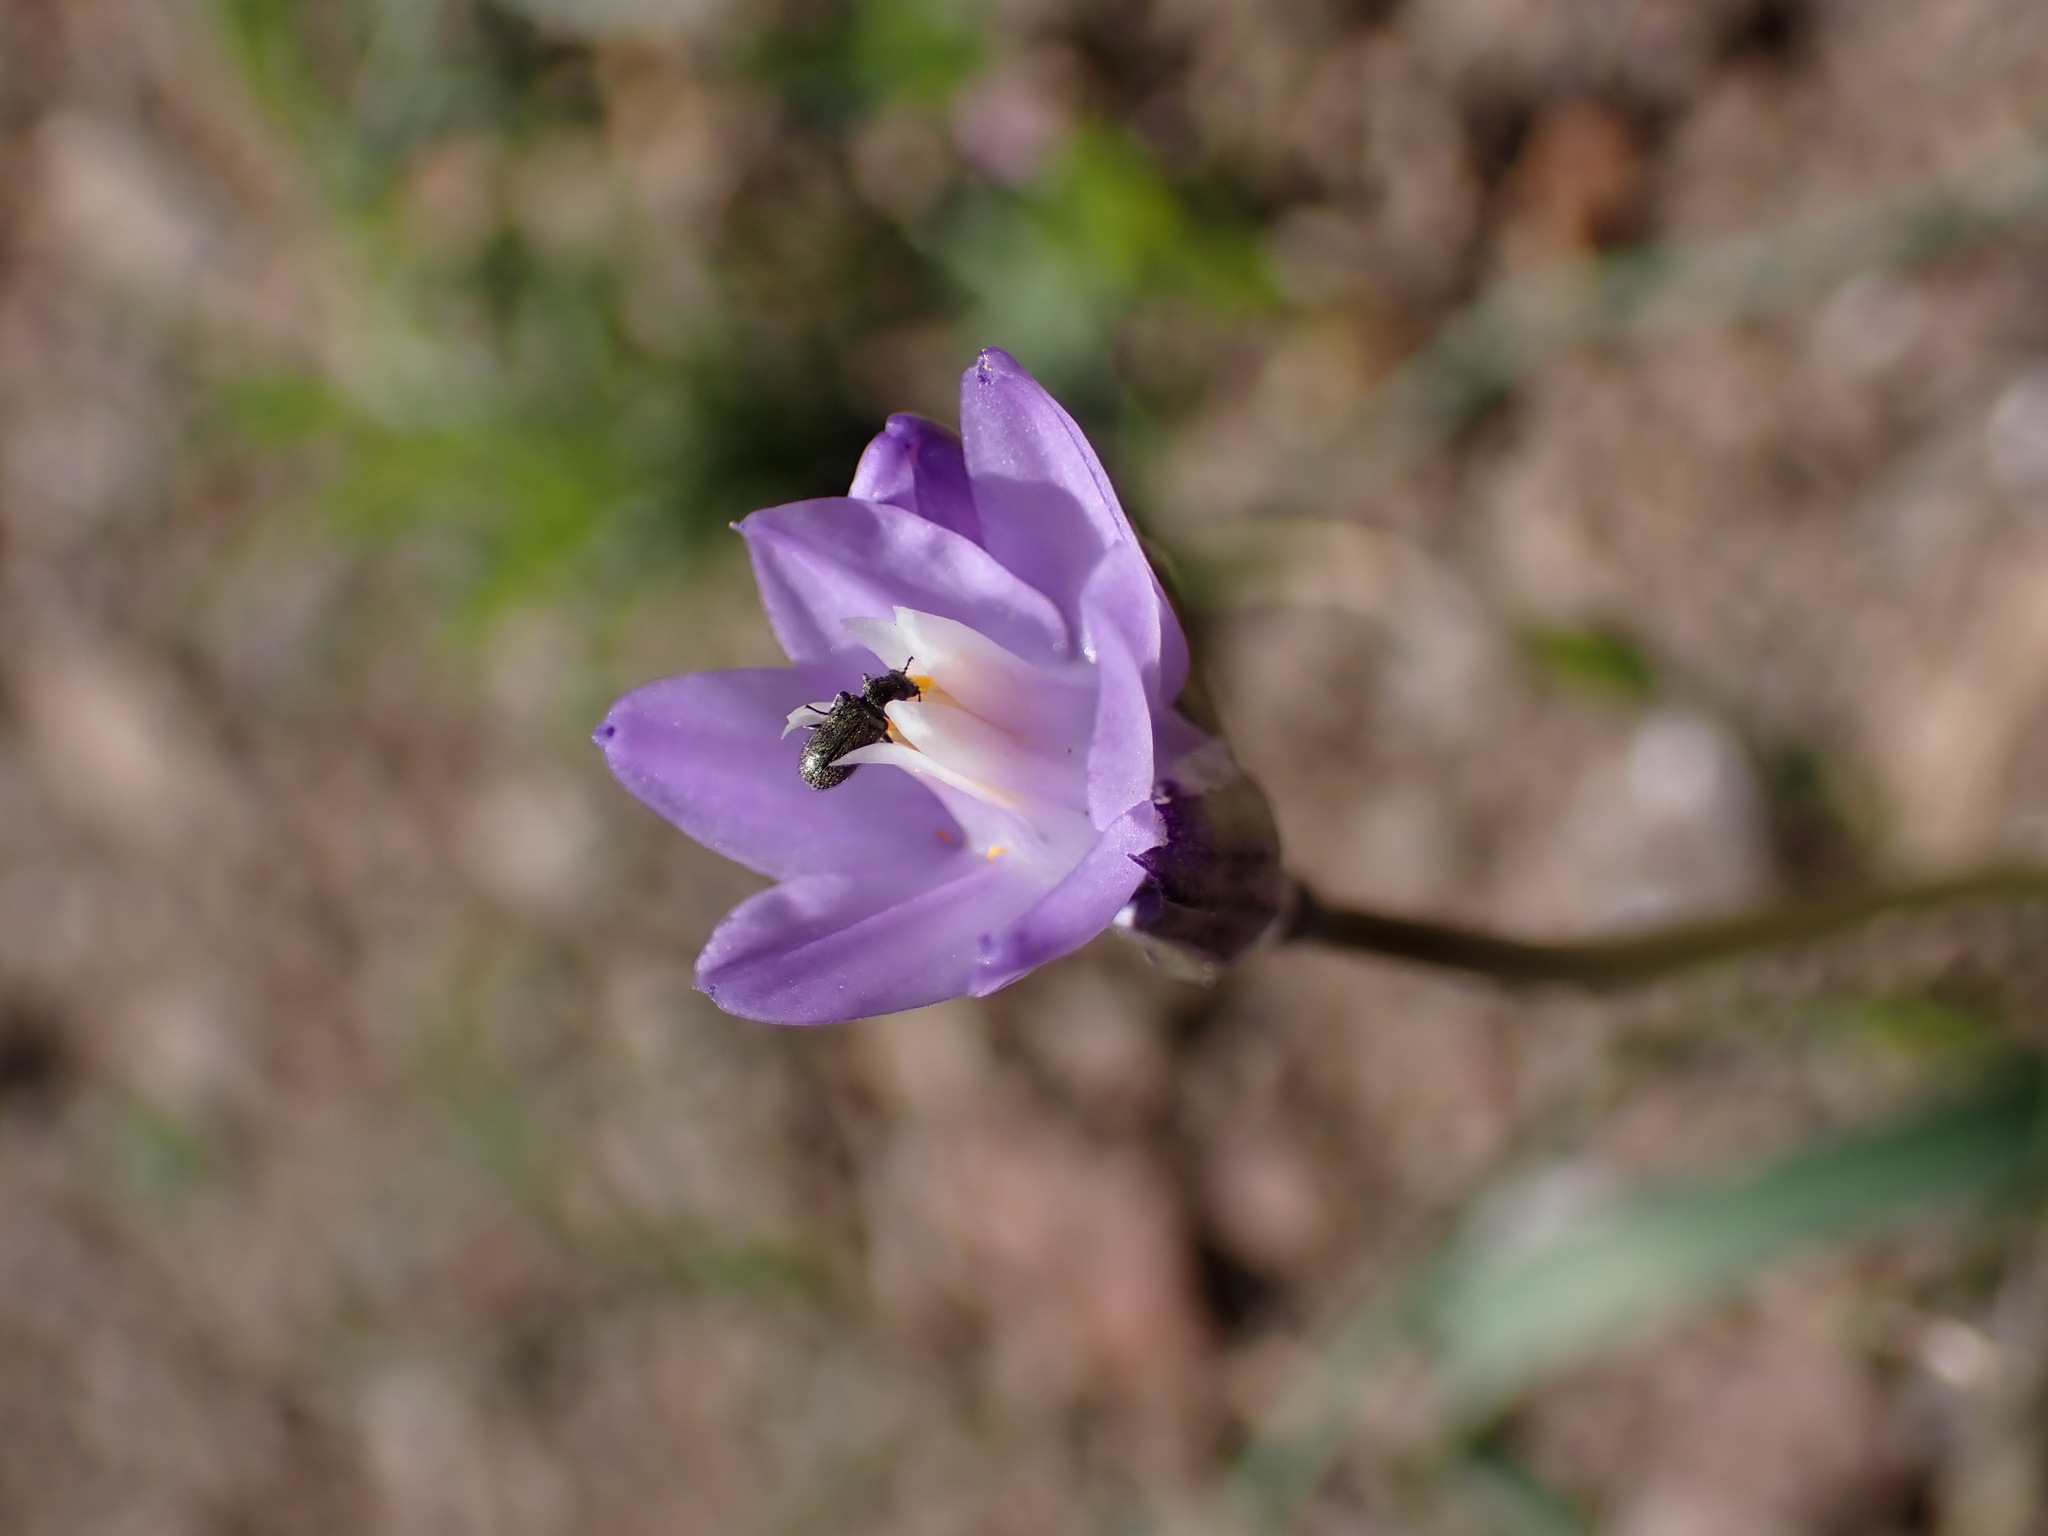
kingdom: Plantae
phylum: Tracheophyta
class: Liliopsida
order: Asparagales
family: Asparagaceae
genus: Dipterostemon
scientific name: Dipterostemon capitatus
